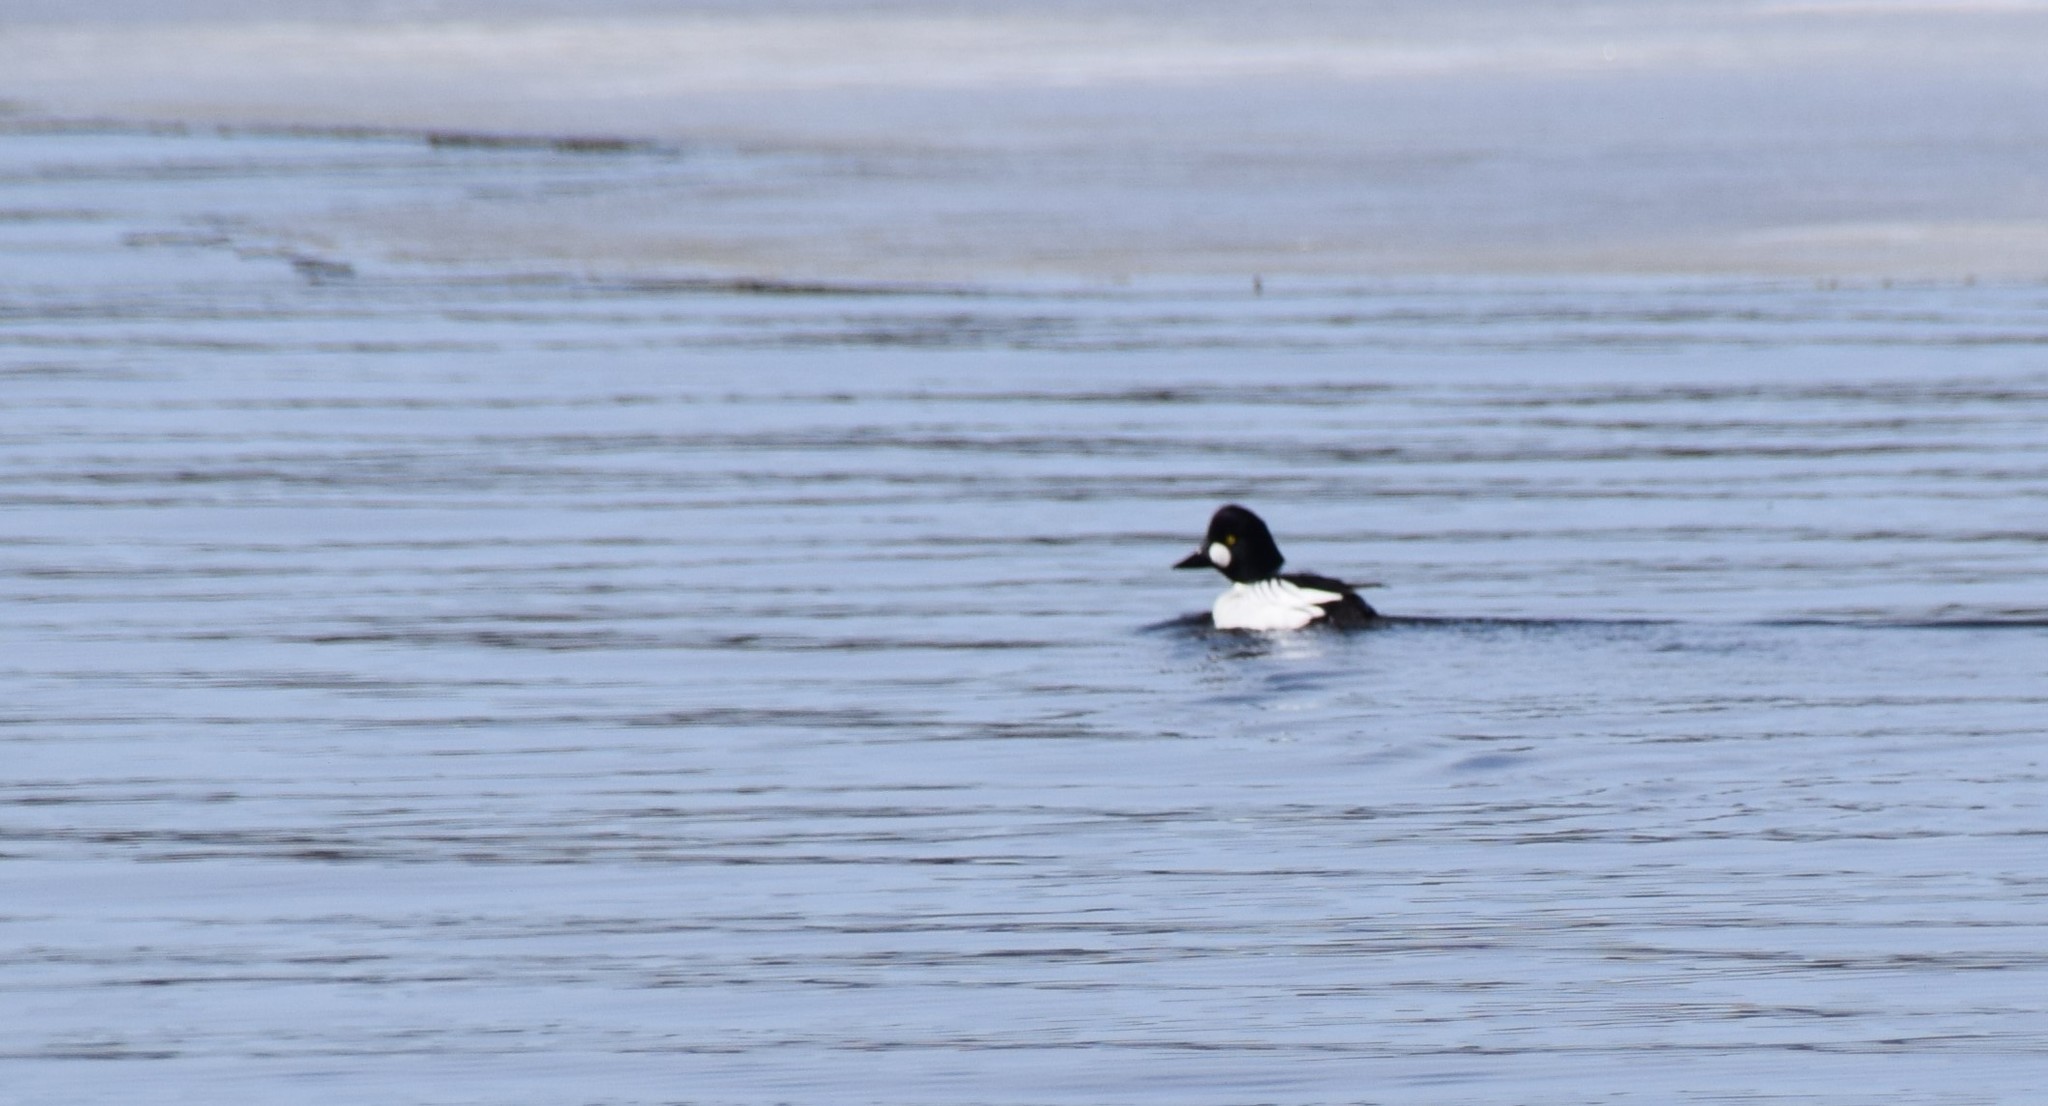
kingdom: Animalia
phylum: Chordata
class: Aves
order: Anseriformes
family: Anatidae
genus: Bucephala
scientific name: Bucephala clangula
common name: Common goldeneye
